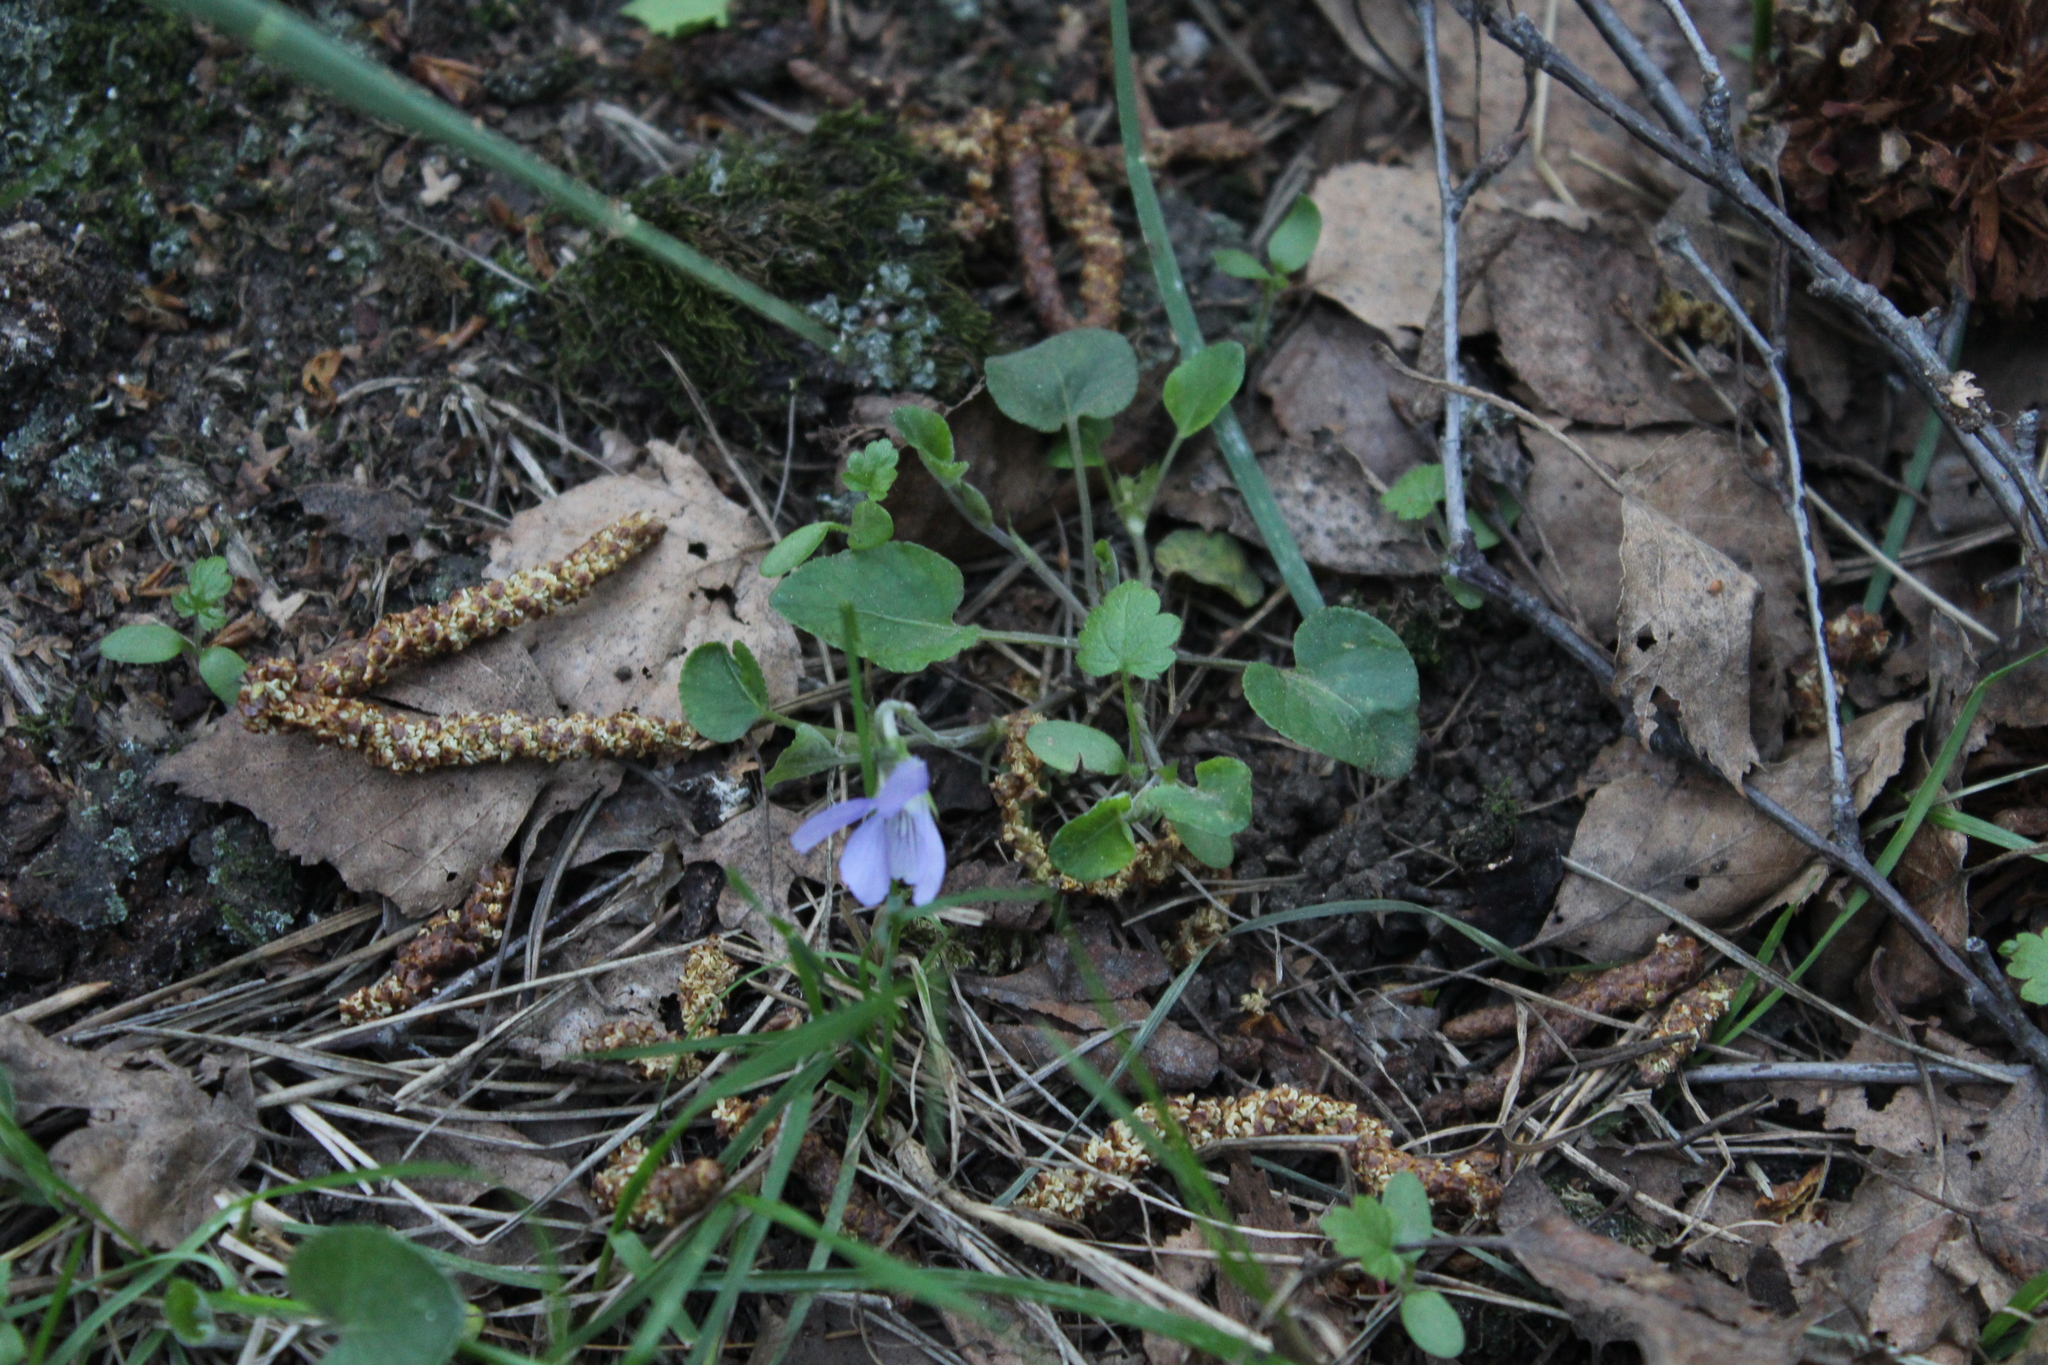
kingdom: Plantae
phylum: Tracheophyta
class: Magnoliopsida
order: Malpighiales
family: Violaceae
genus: Viola
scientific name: Viola rupestris
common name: Teesdale violet
